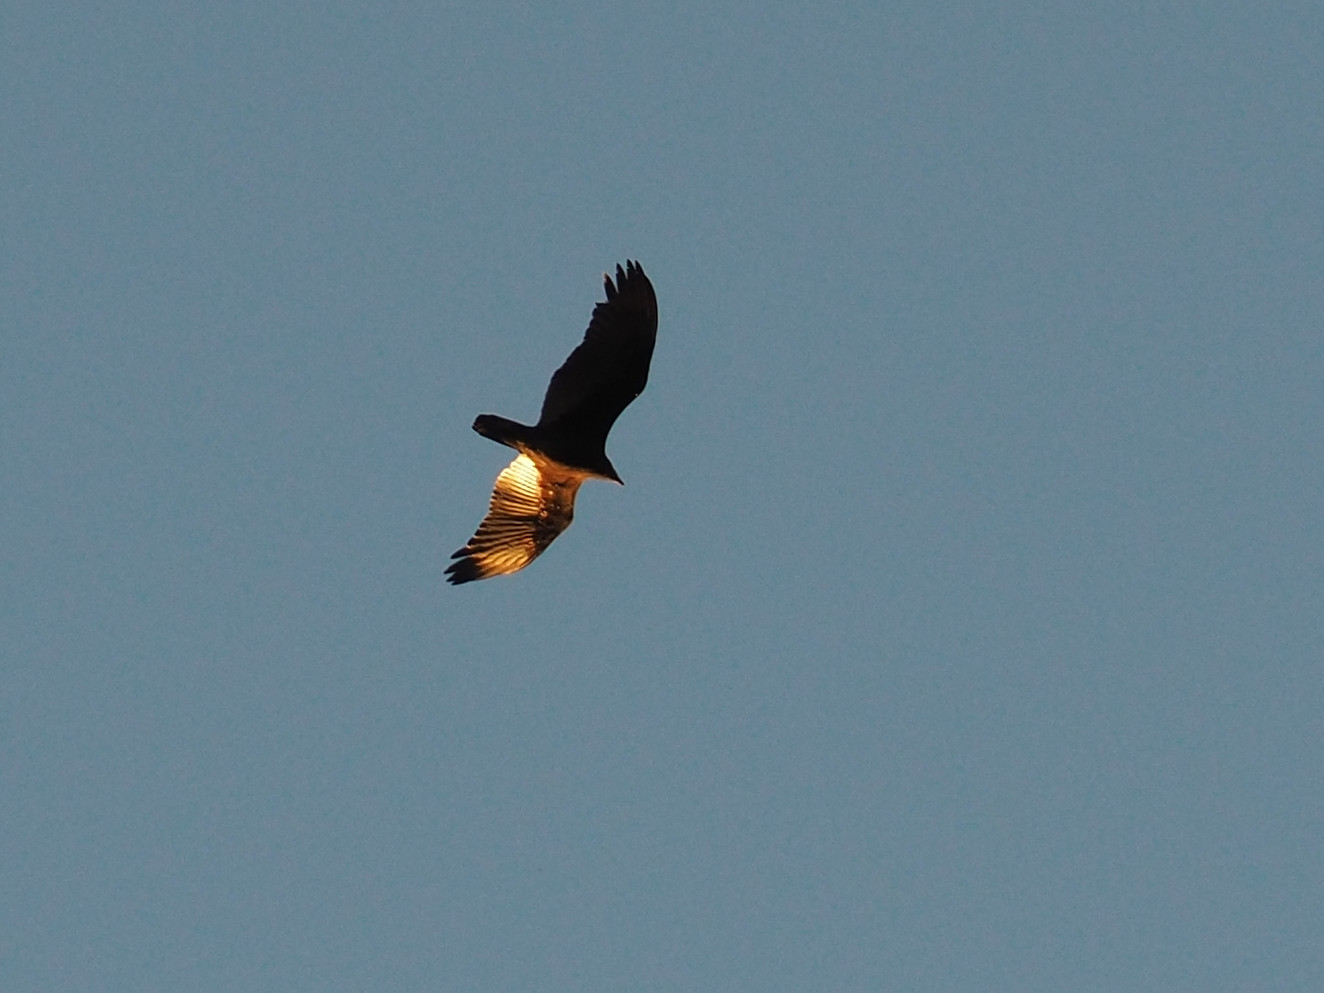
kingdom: Animalia
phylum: Chordata
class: Aves
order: Accipitriformes
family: Cathartidae
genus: Cathartes
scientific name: Cathartes aura
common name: Turkey vulture
